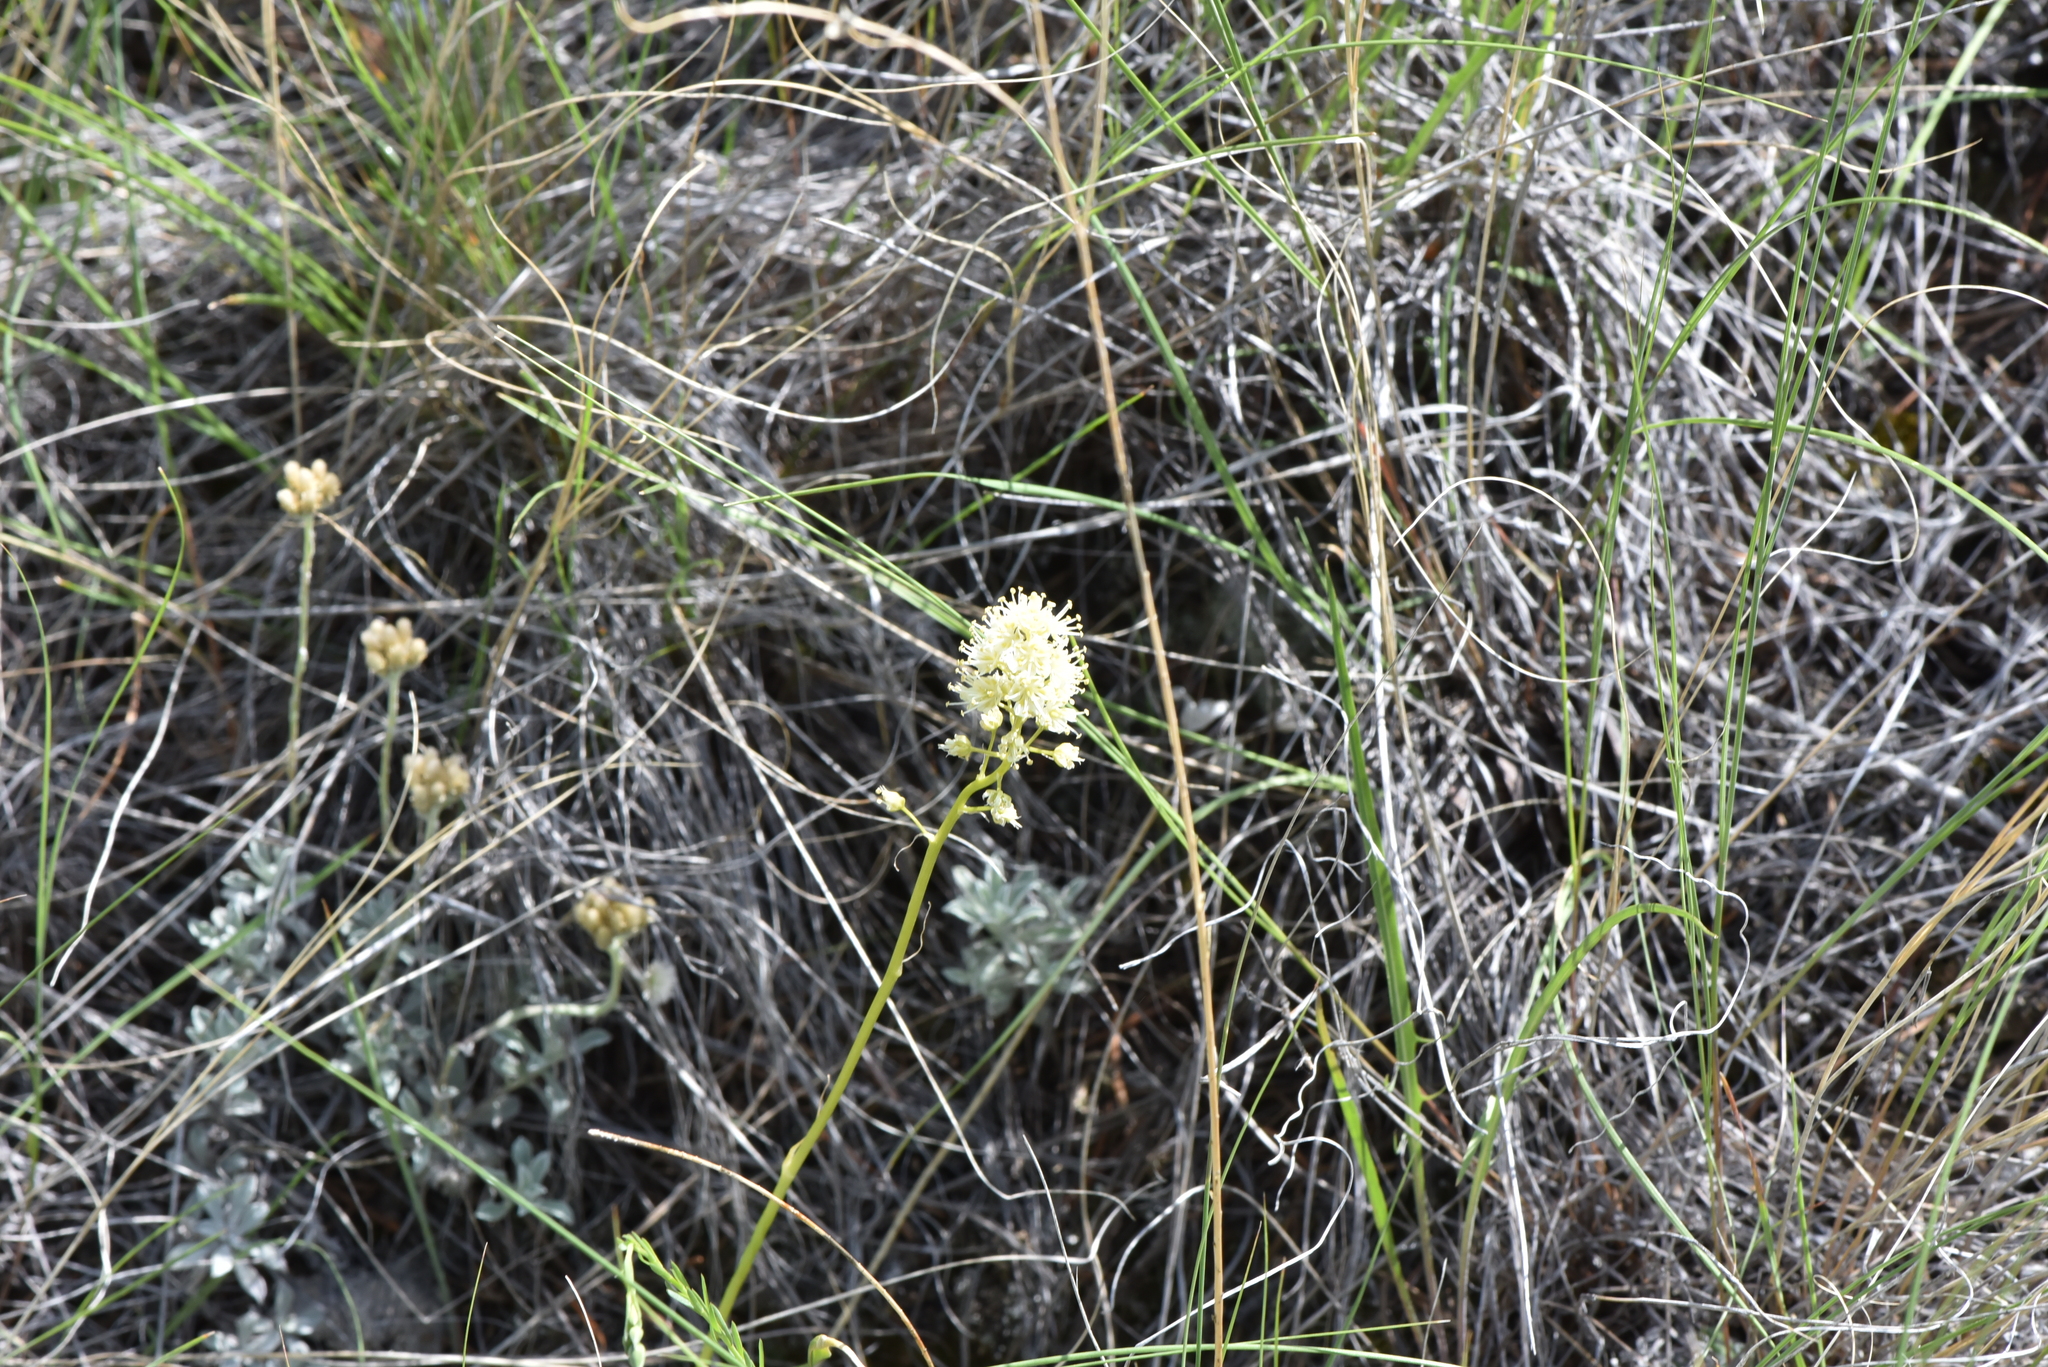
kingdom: Plantae
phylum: Tracheophyta
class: Liliopsida
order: Liliales
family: Melanthiaceae
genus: Toxicoscordion
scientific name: Toxicoscordion venenosum
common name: Meadow death camas
